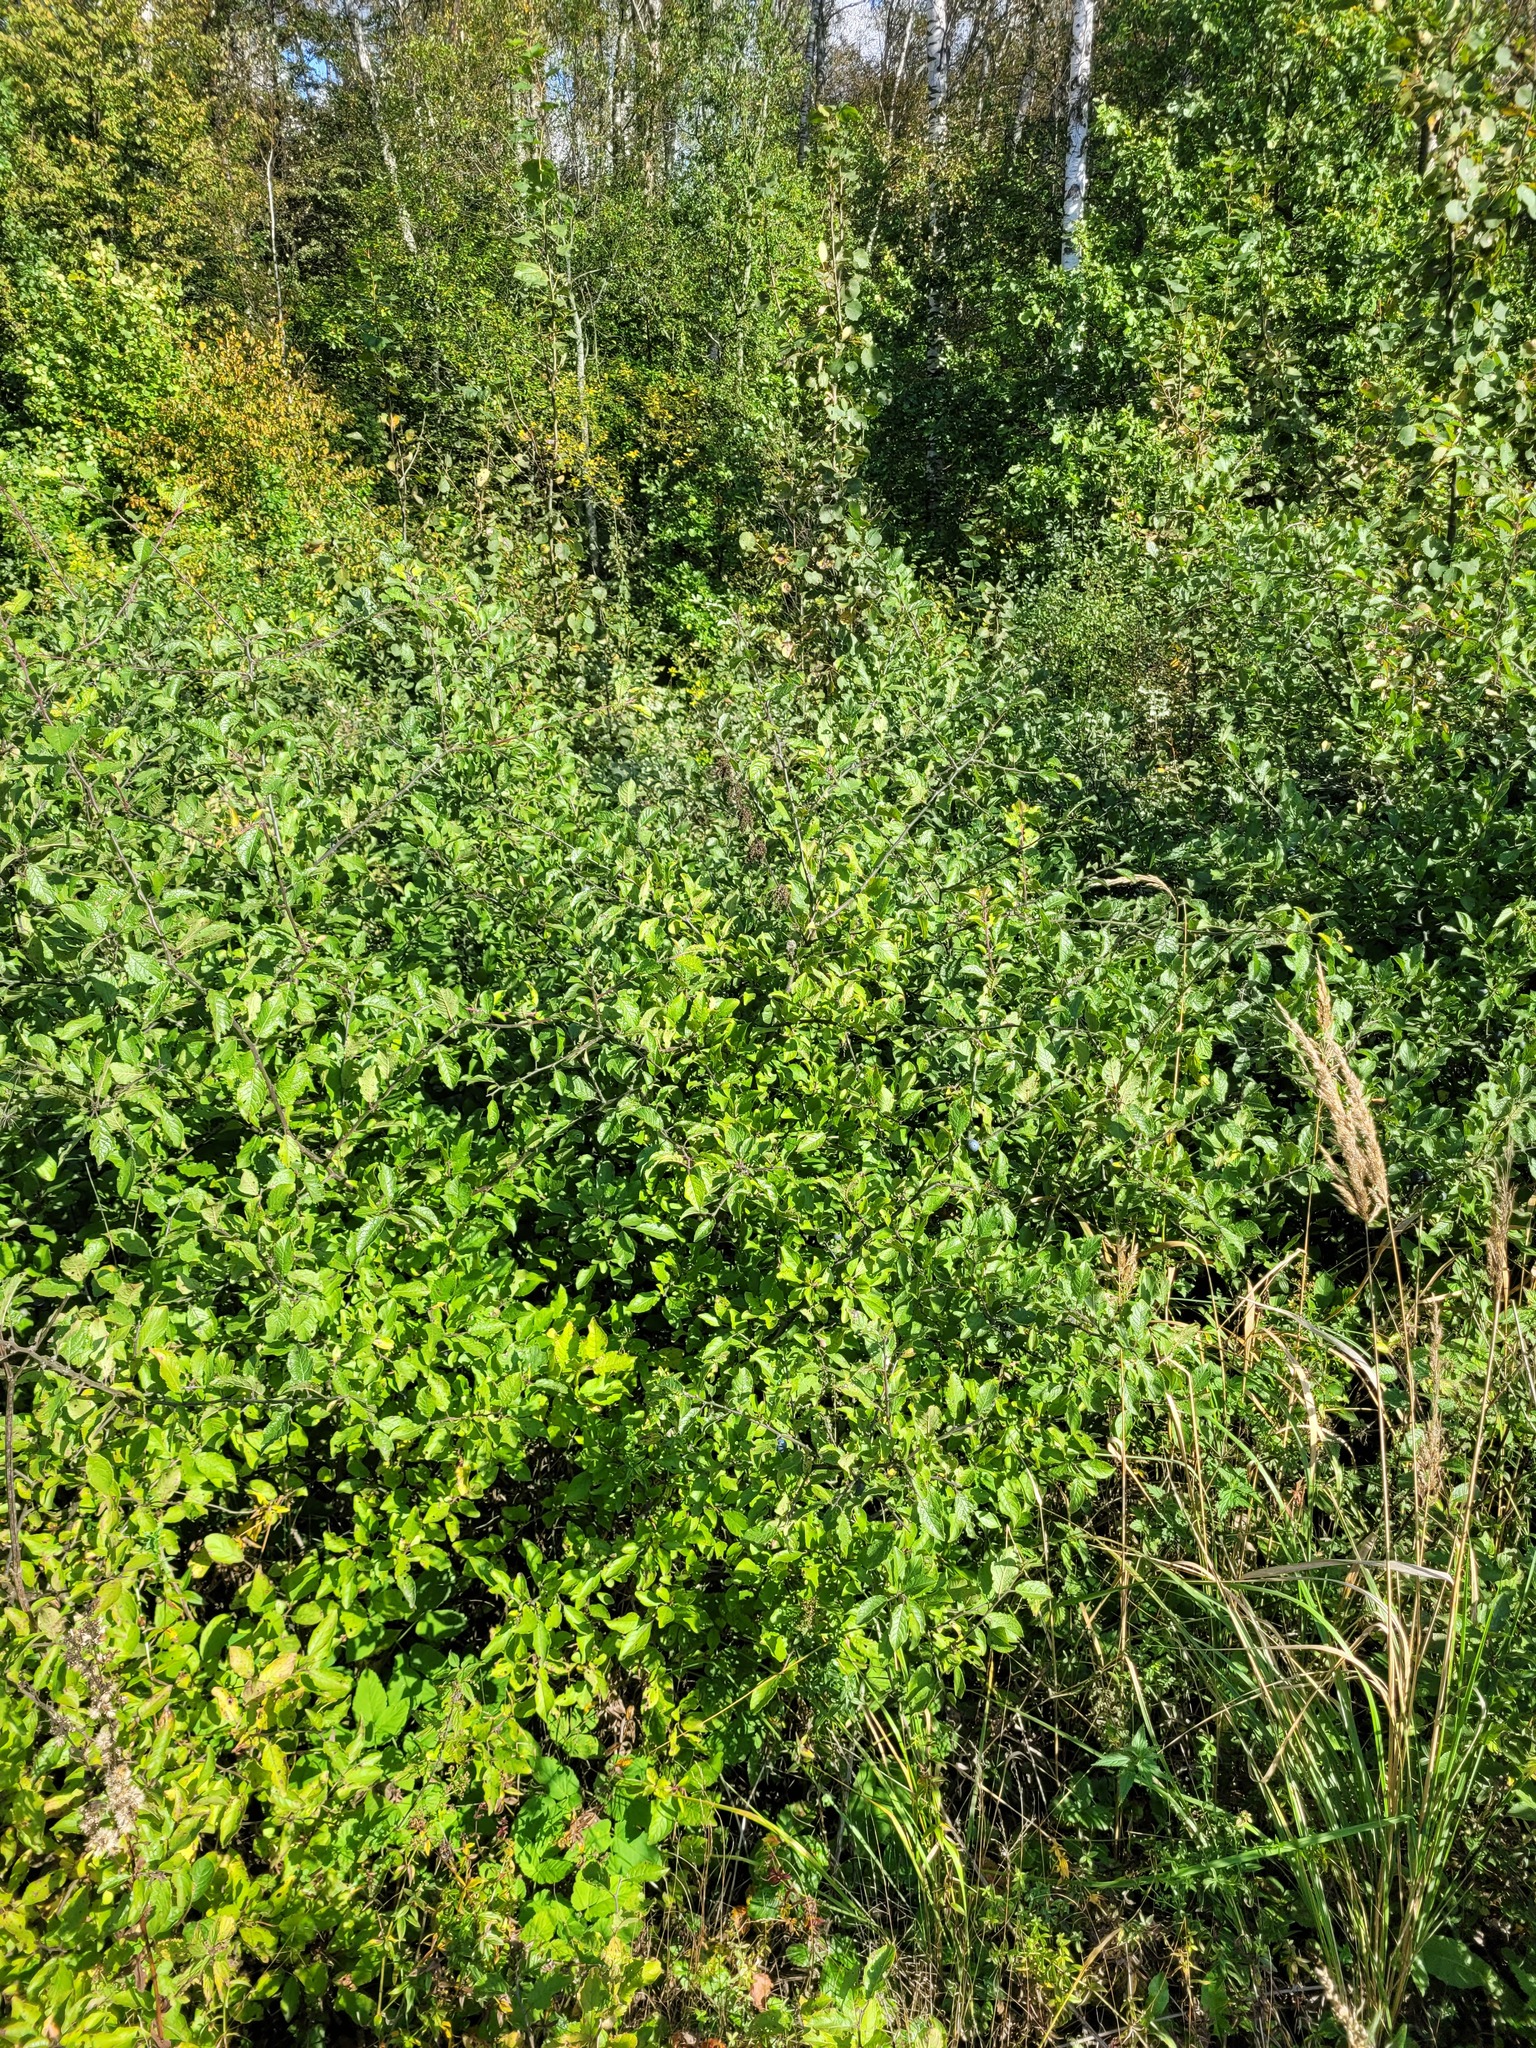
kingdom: Plantae
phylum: Tracheophyta
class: Magnoliopsida
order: Rosales
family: Rosaceae
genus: Prunus
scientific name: Prunus spinosa
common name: Blackthorn
